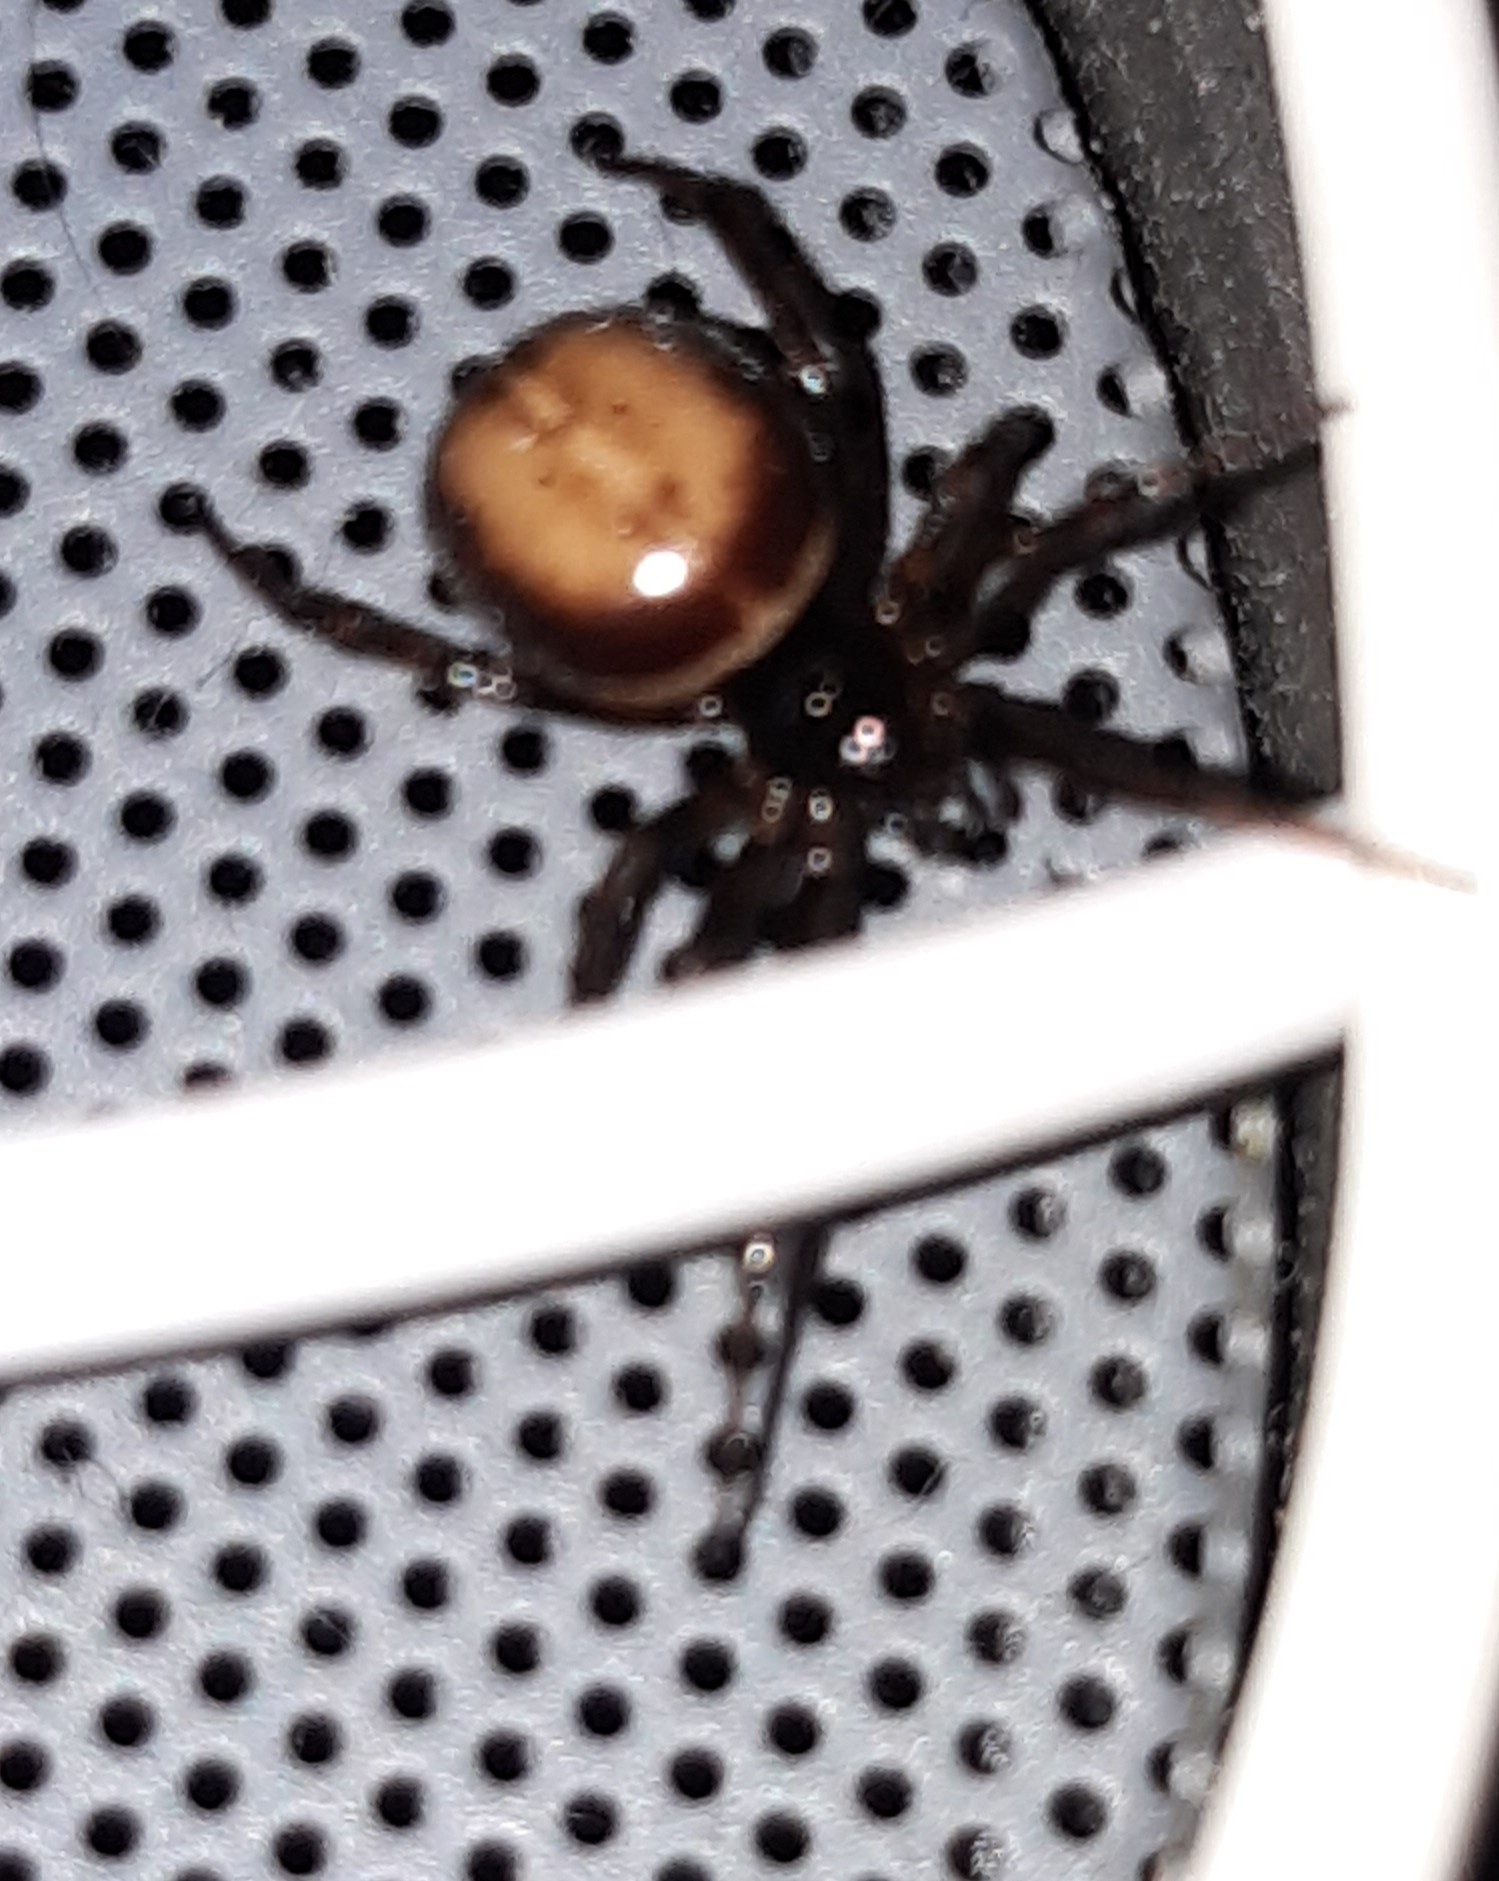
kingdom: Animalia
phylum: Arthropoda
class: Arachnida
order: Araneae
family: Theridiidae
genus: Steatoda
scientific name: Steatoda bipunctata
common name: False widow
